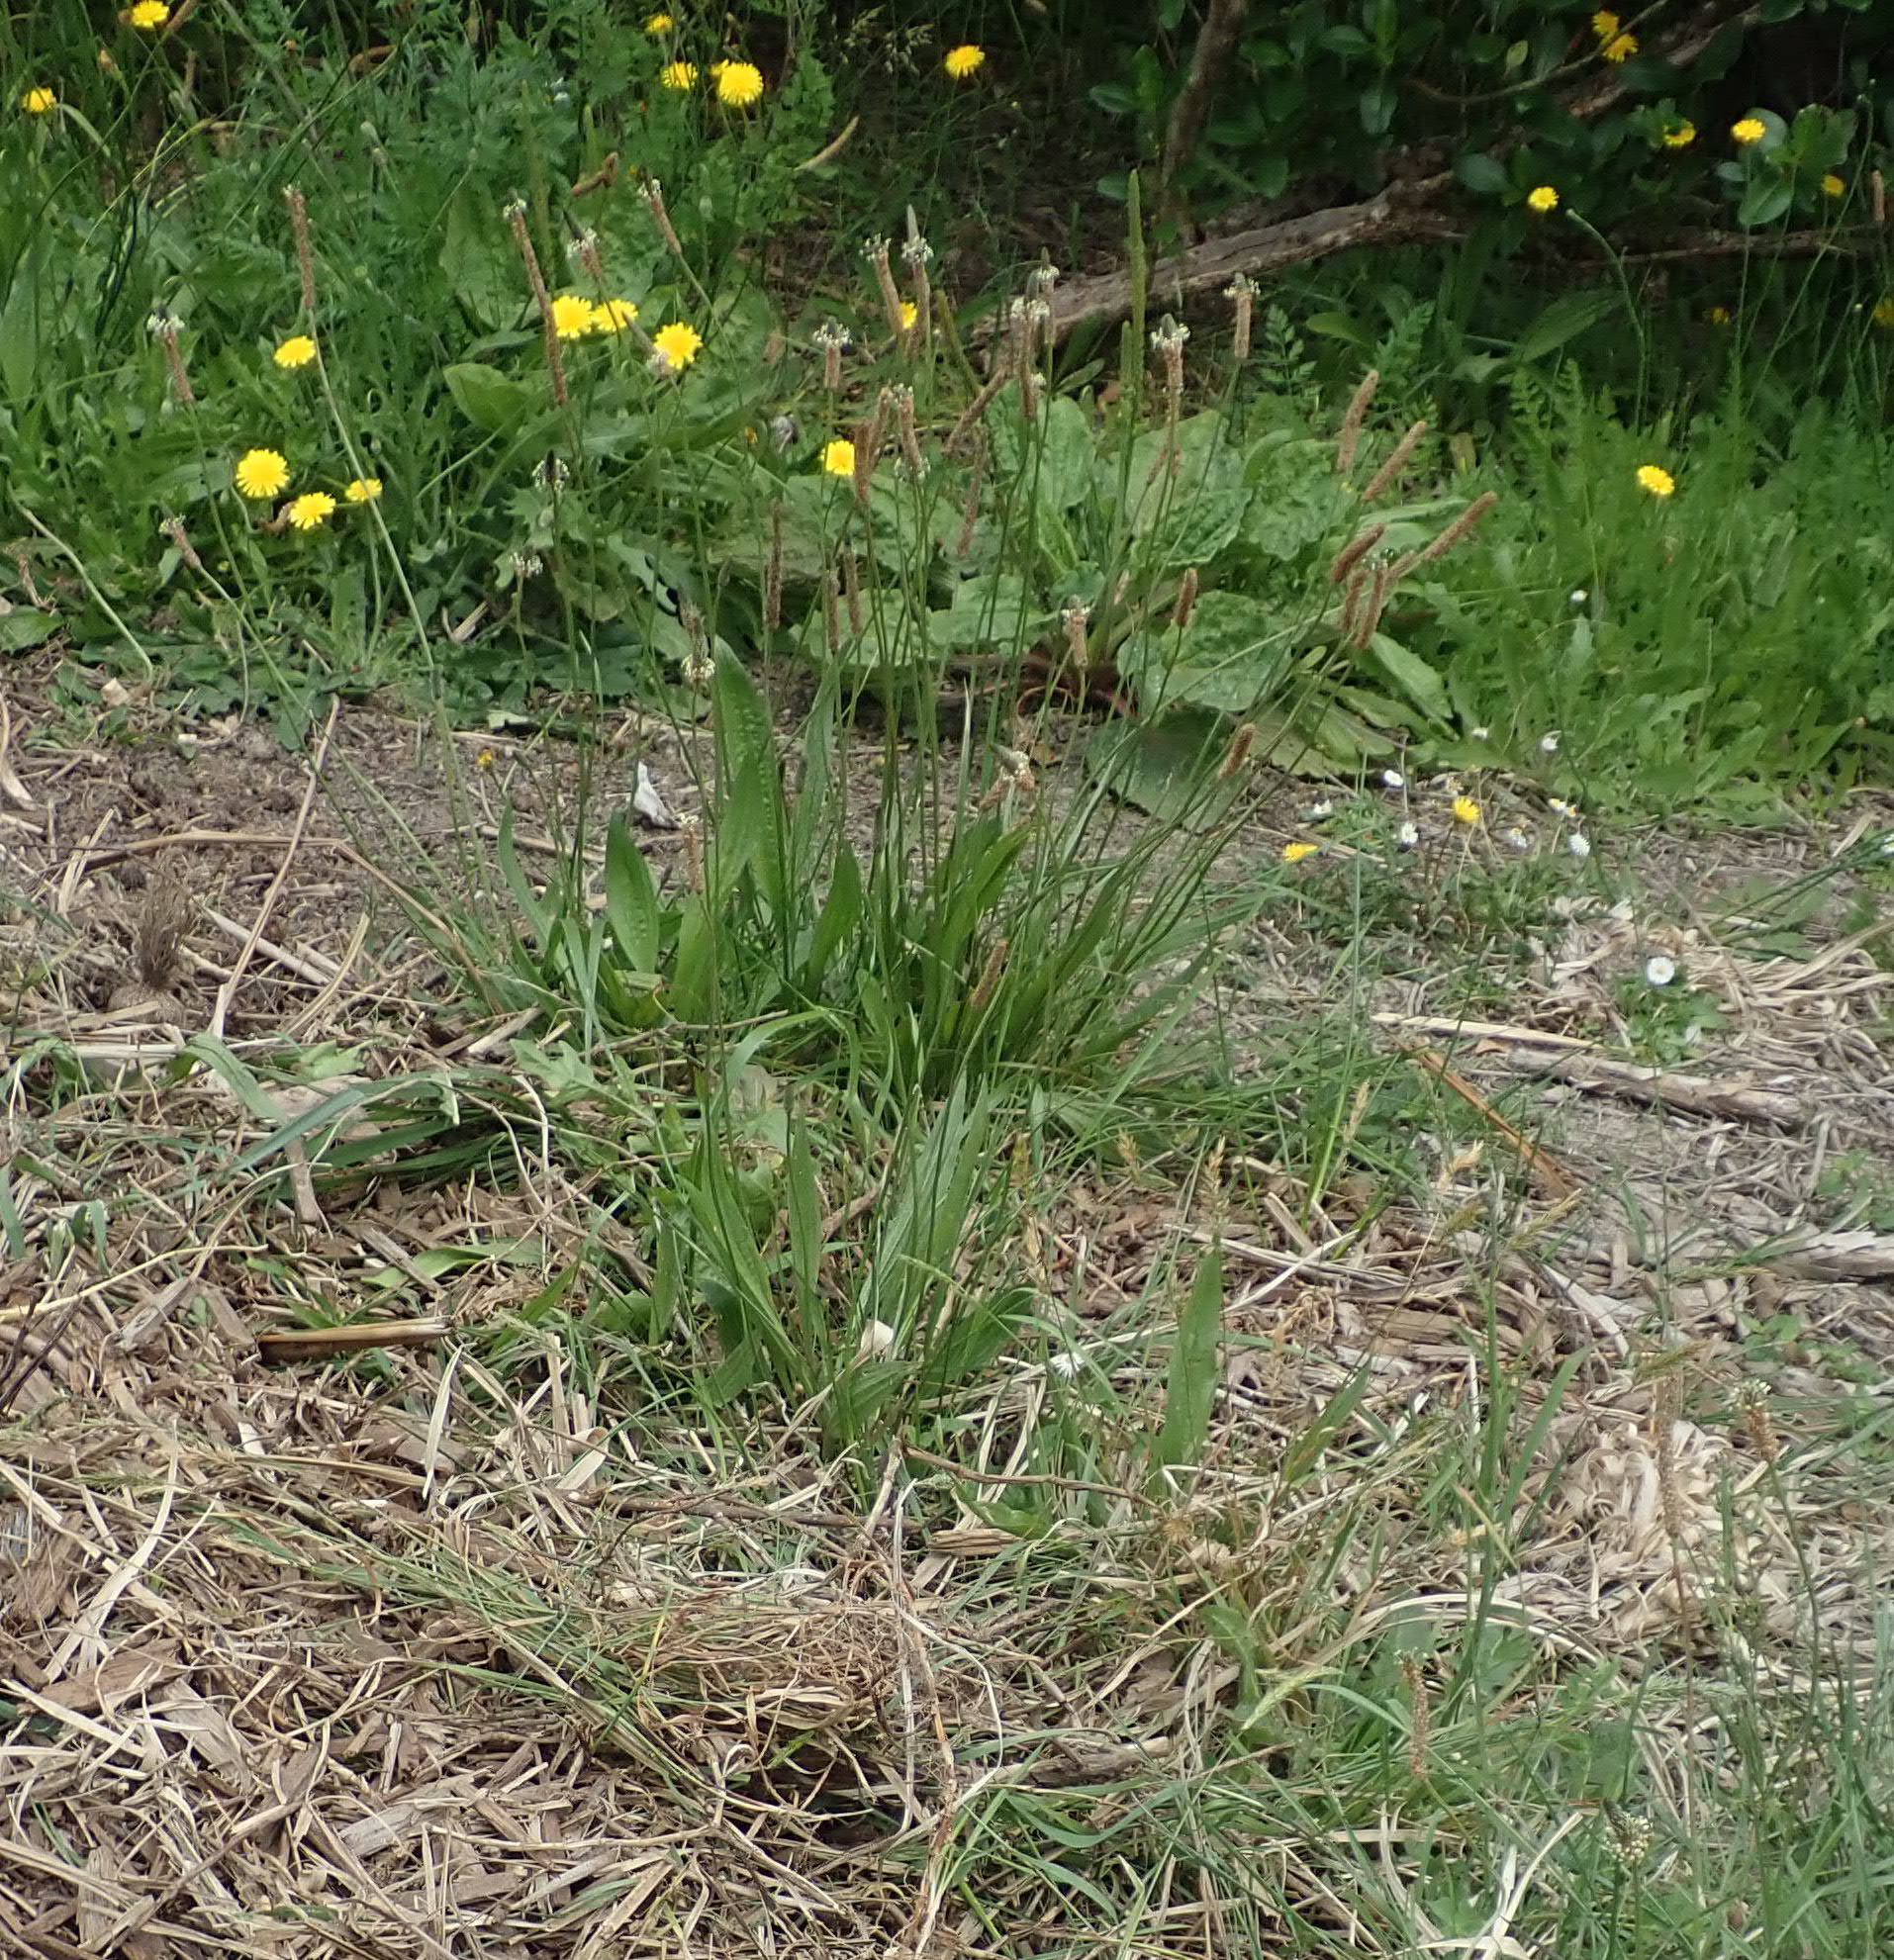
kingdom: Plantae
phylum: Tracheophyta
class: Magnoliopsida
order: Lamiales
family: Plantaginaceae
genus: Plantago
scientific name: Plantago lanceolata
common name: Ribwort plantain
